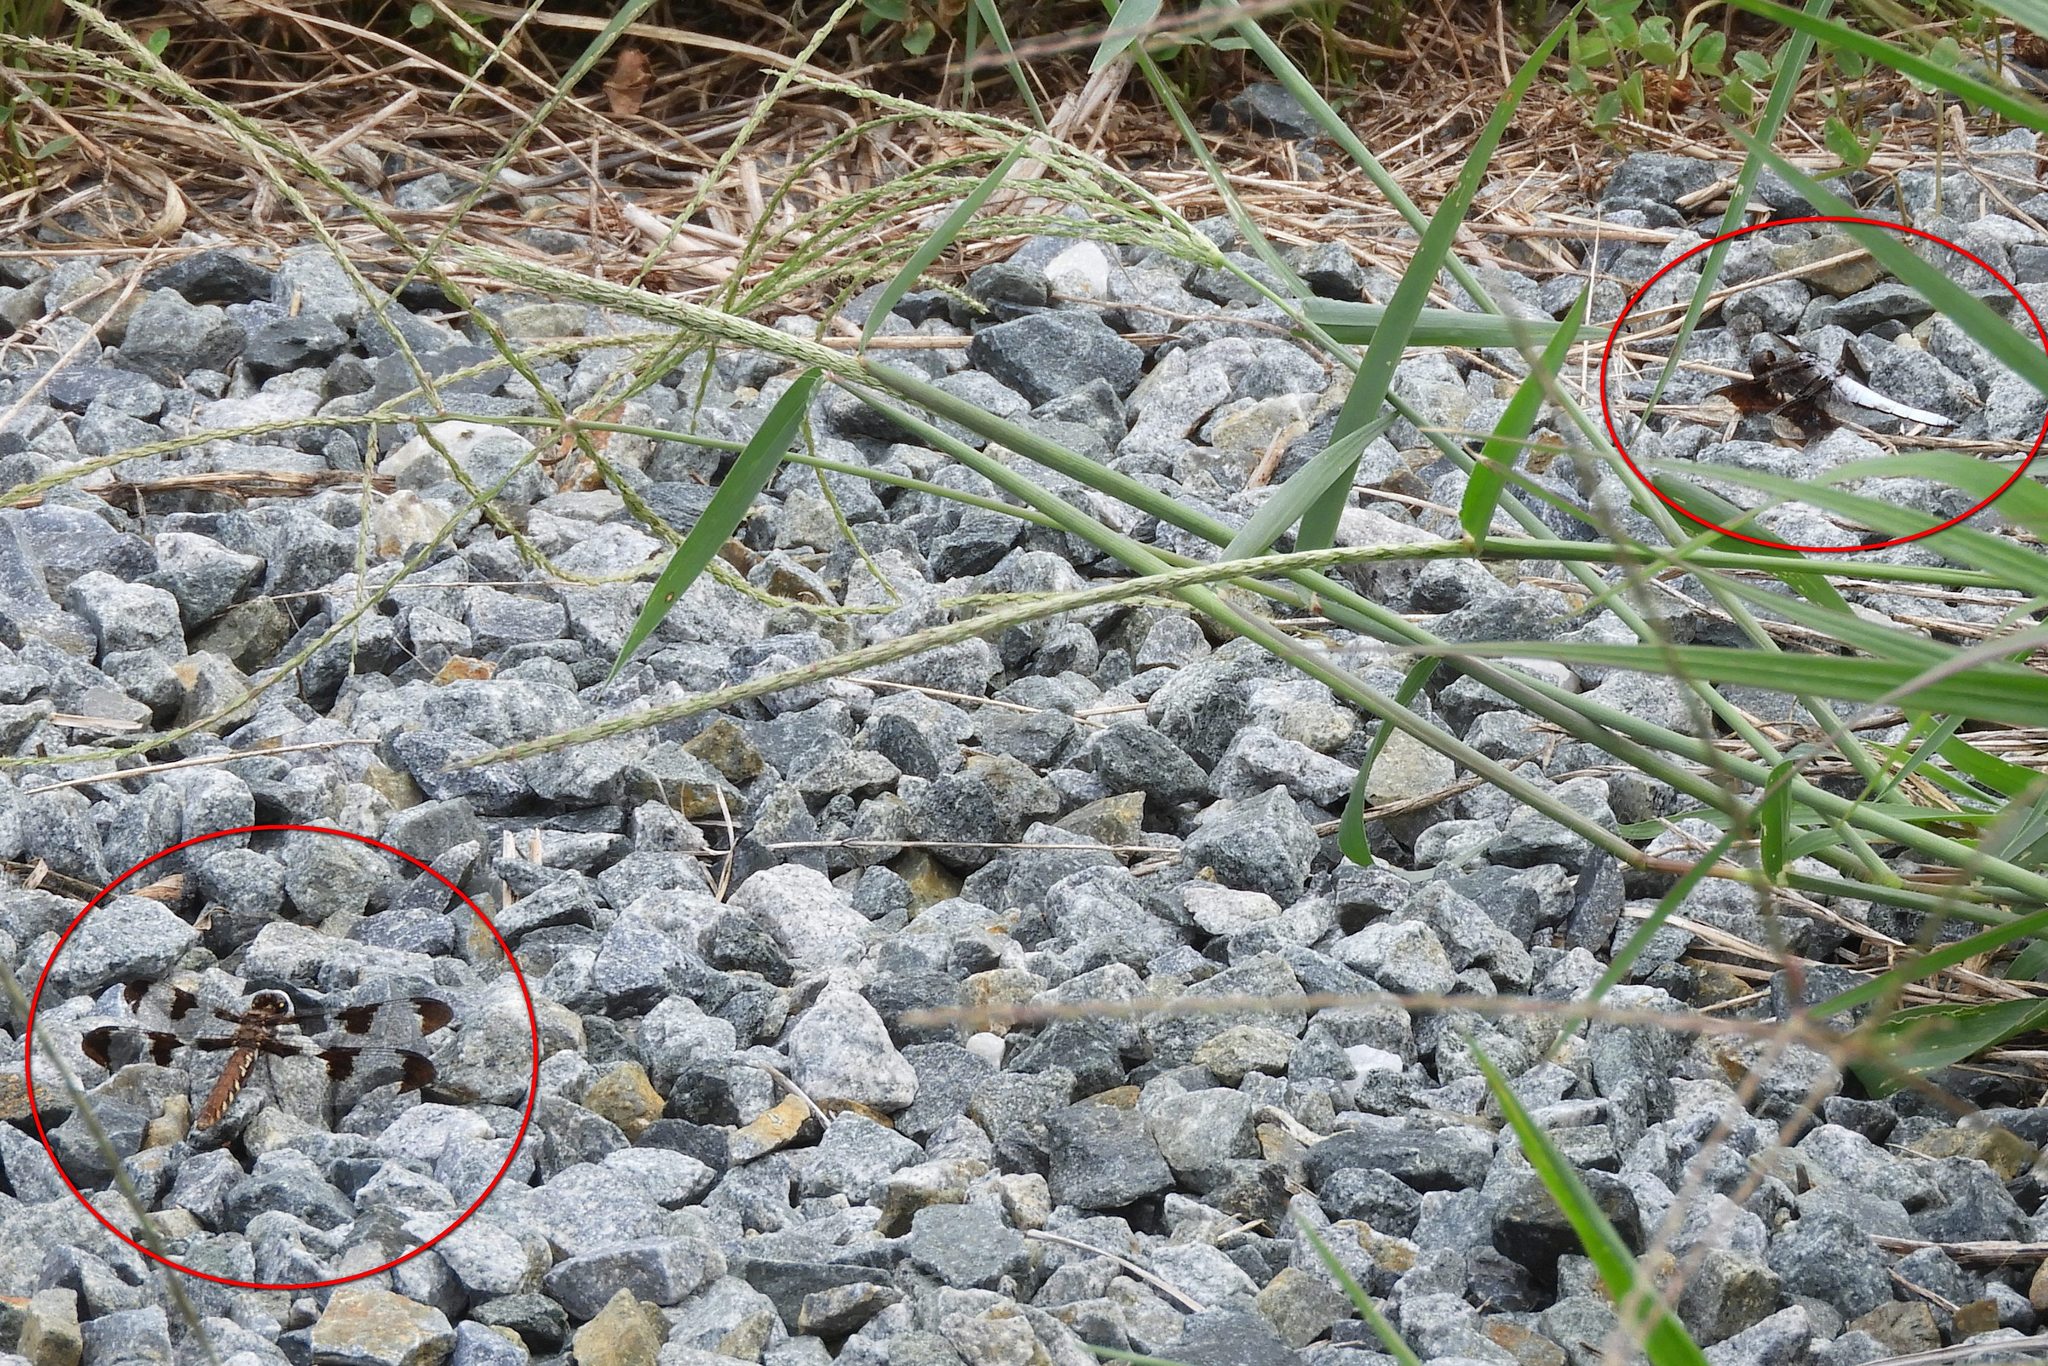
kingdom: Animalia
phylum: Arthropoda
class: Insecta
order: Odonata
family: Libellulidae
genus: Plathemis
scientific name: Plathemis lydia
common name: Common whitetail
